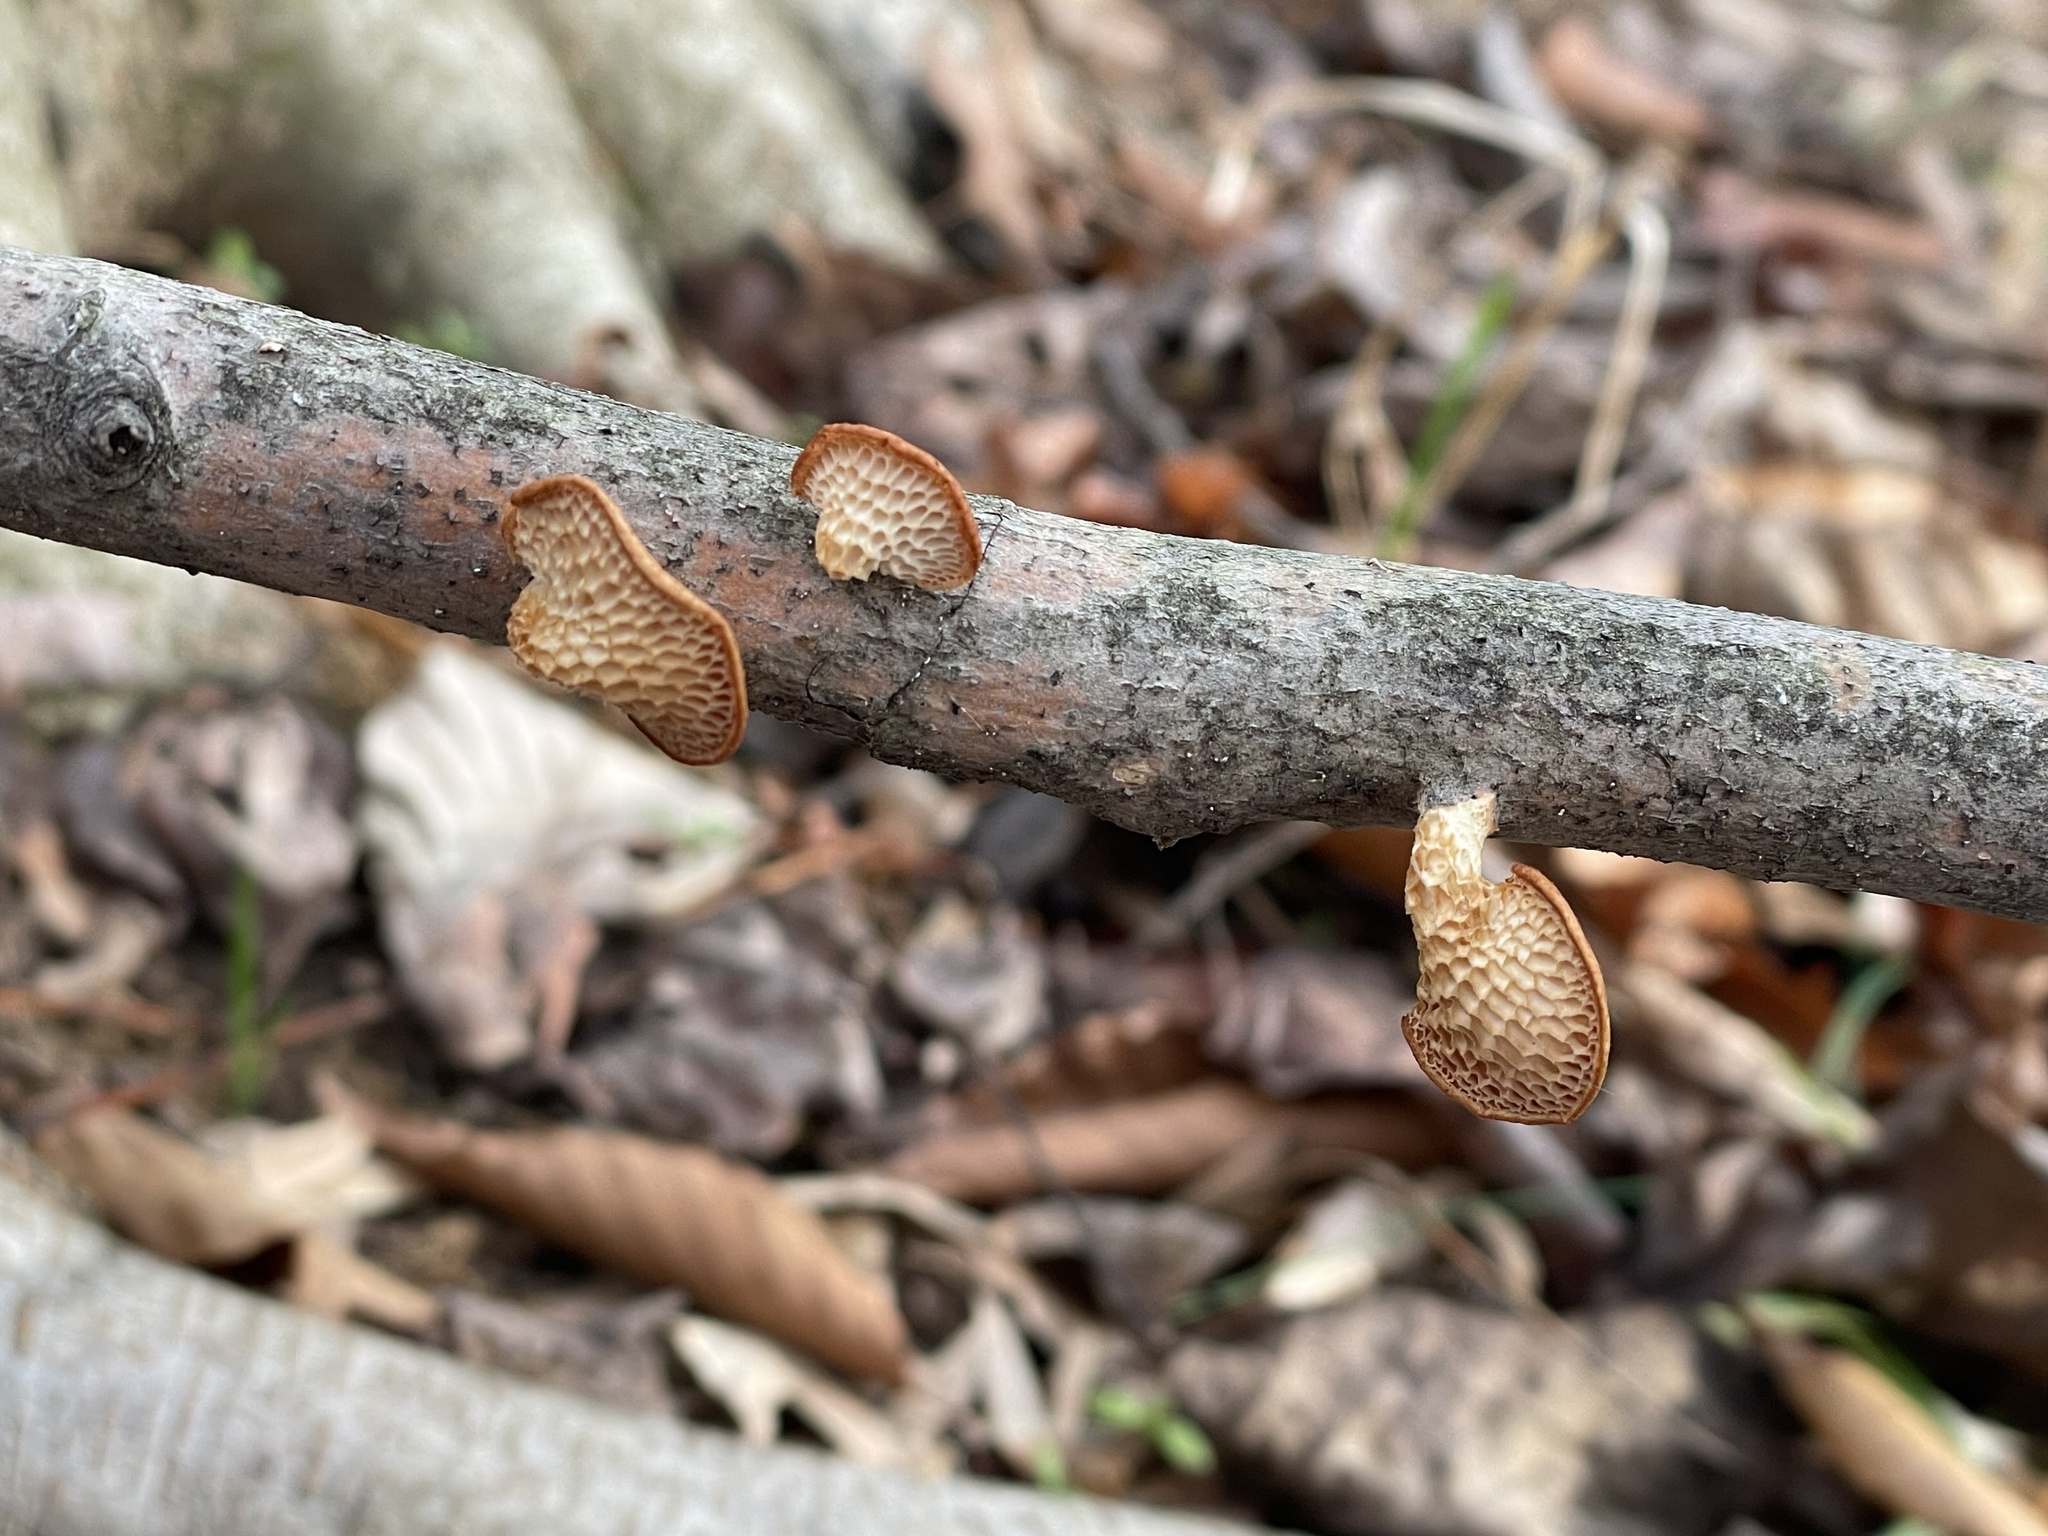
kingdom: Fungi
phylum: Basidiomycota
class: Agaricomycetes
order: Polyporales
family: Polyporaceae
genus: Neofavolus
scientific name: Neofavolus americanus
